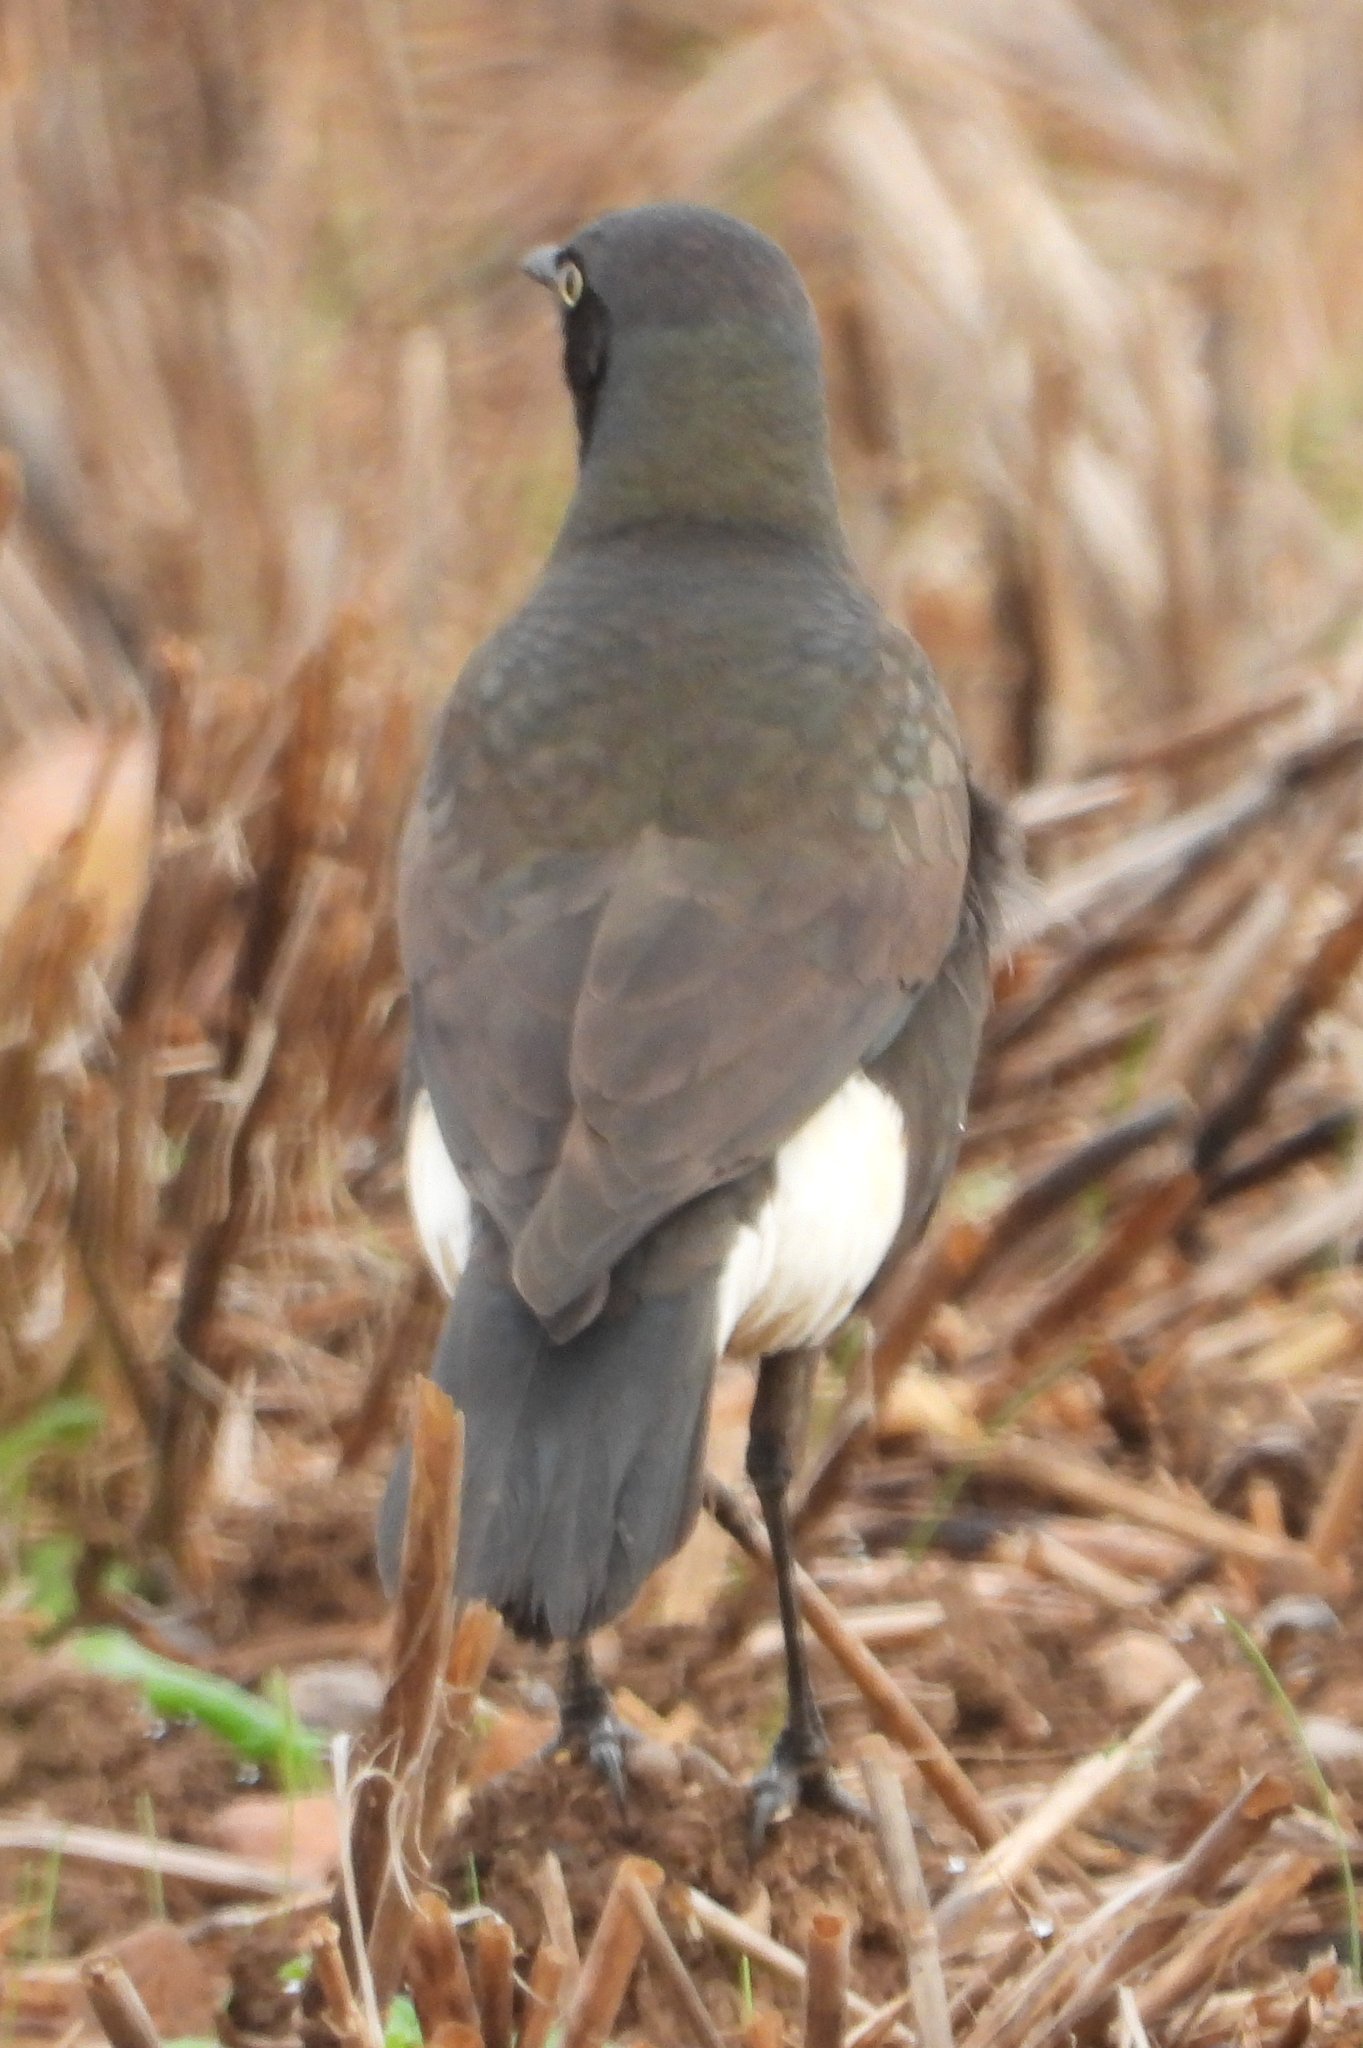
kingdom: Animalia
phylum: Chordata
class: Aves
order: Passeriformes
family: Sturnidae
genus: Lamprotornis
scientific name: Lamprotornis bicolor
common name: Pied starling
